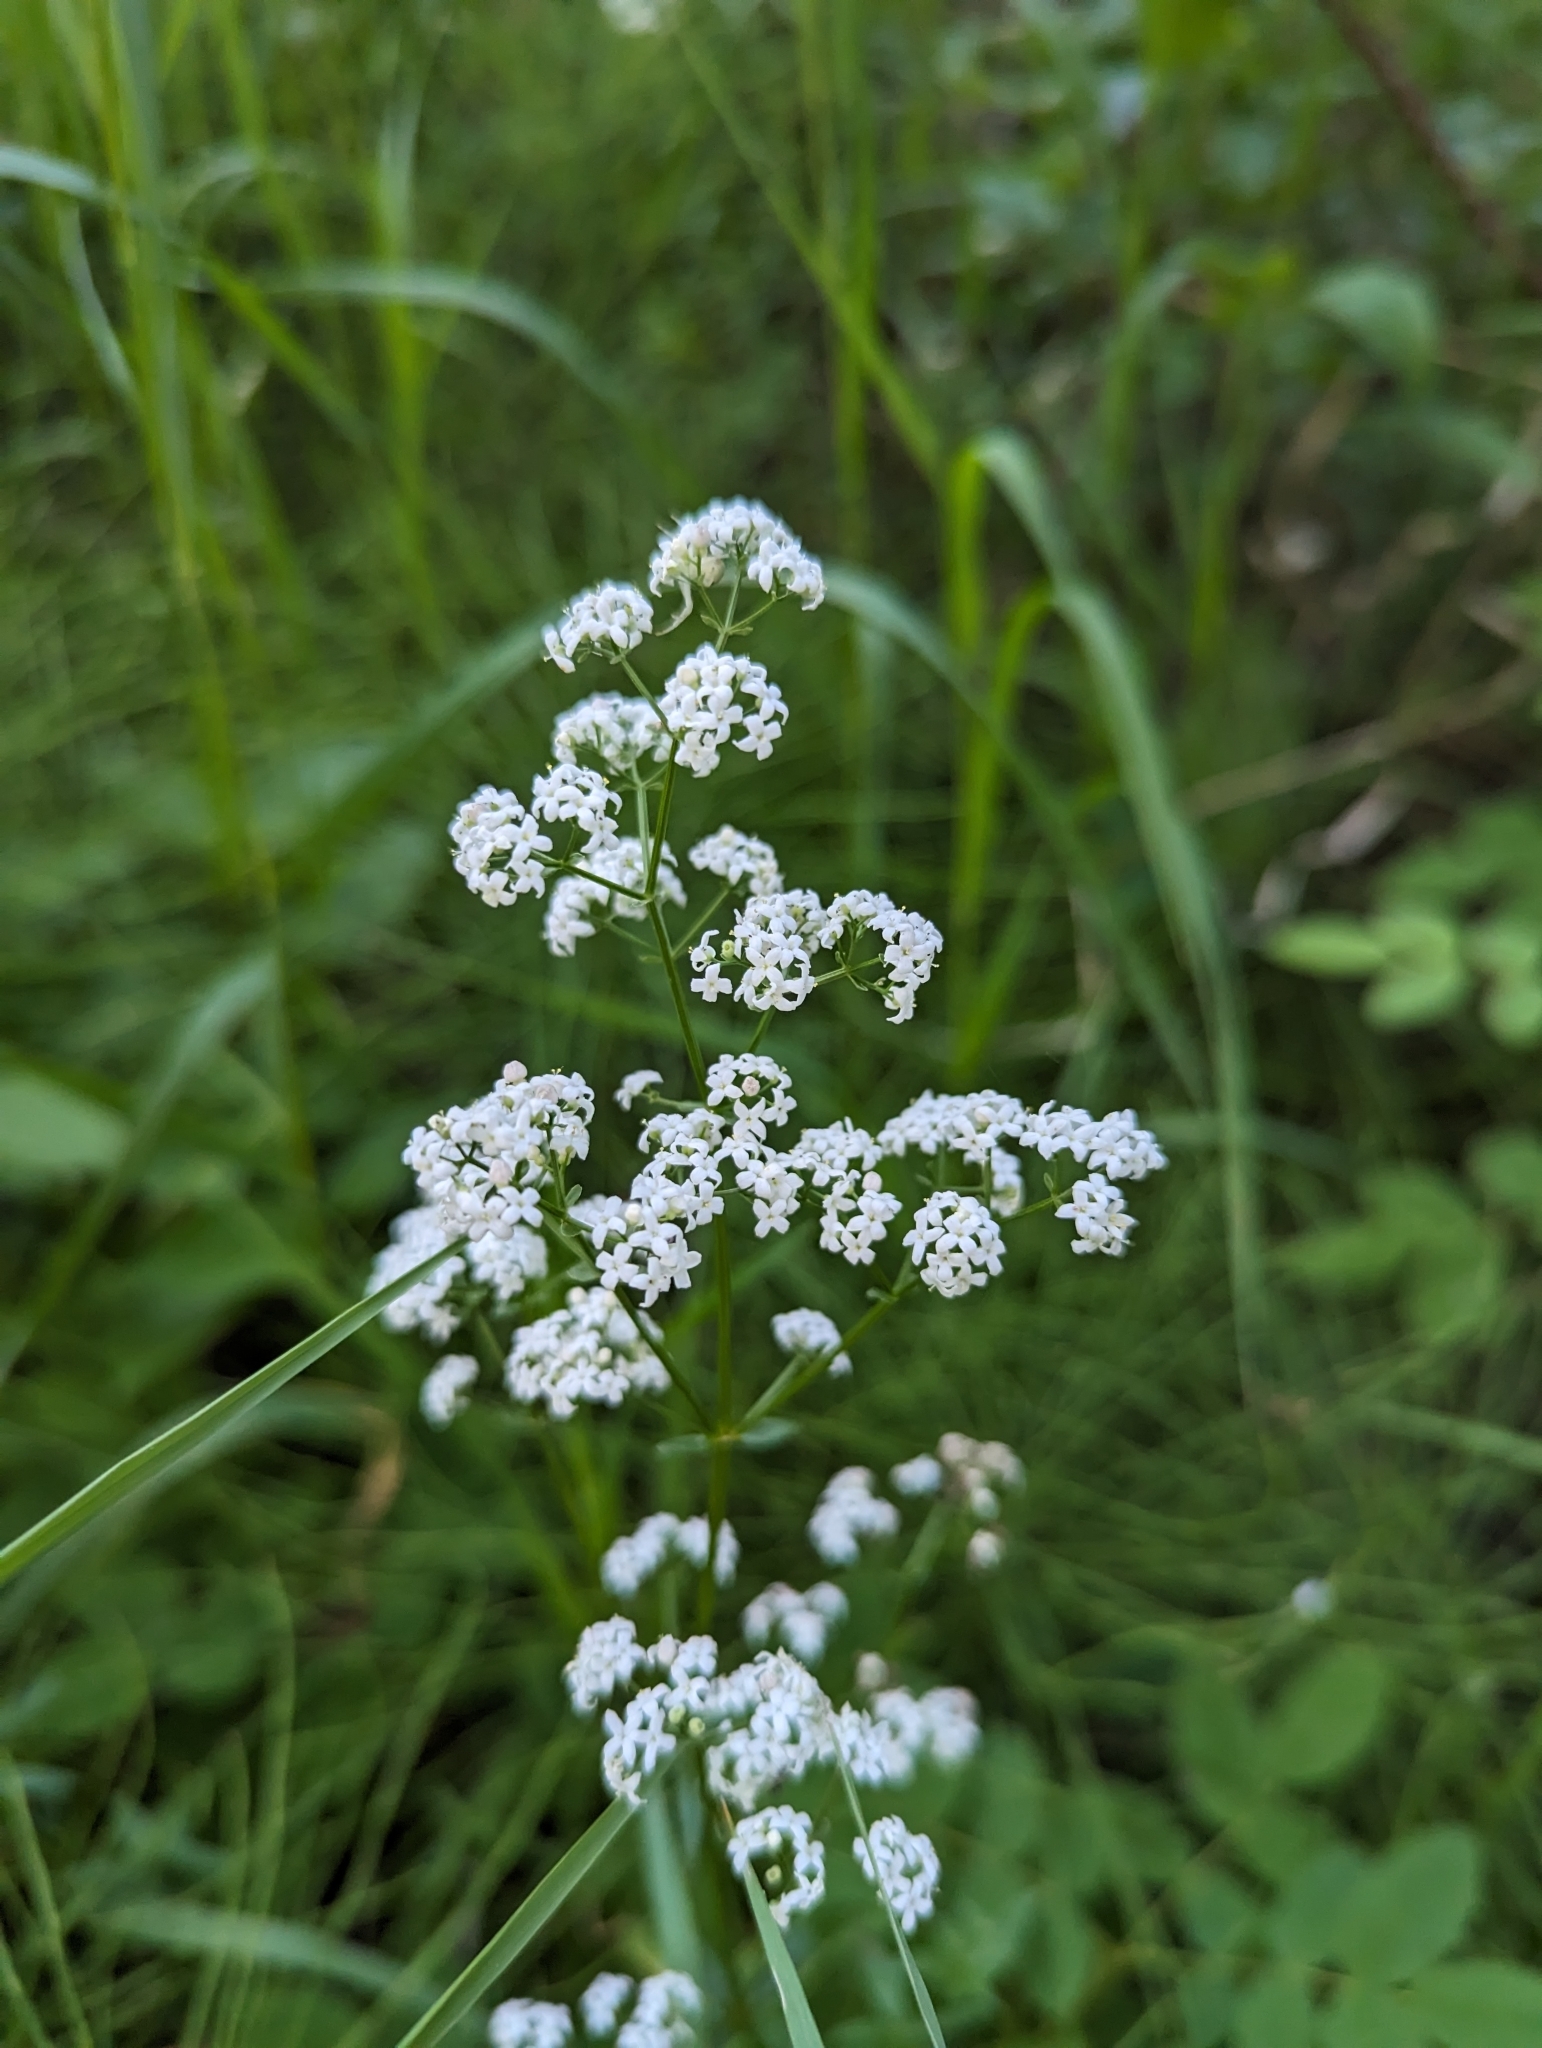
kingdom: Plantae
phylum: Tracheophyta
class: Magnoliopsida
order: Gentianales
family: Rubiaceae
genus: Galium
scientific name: Galium boreale
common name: Northern bedstraw
